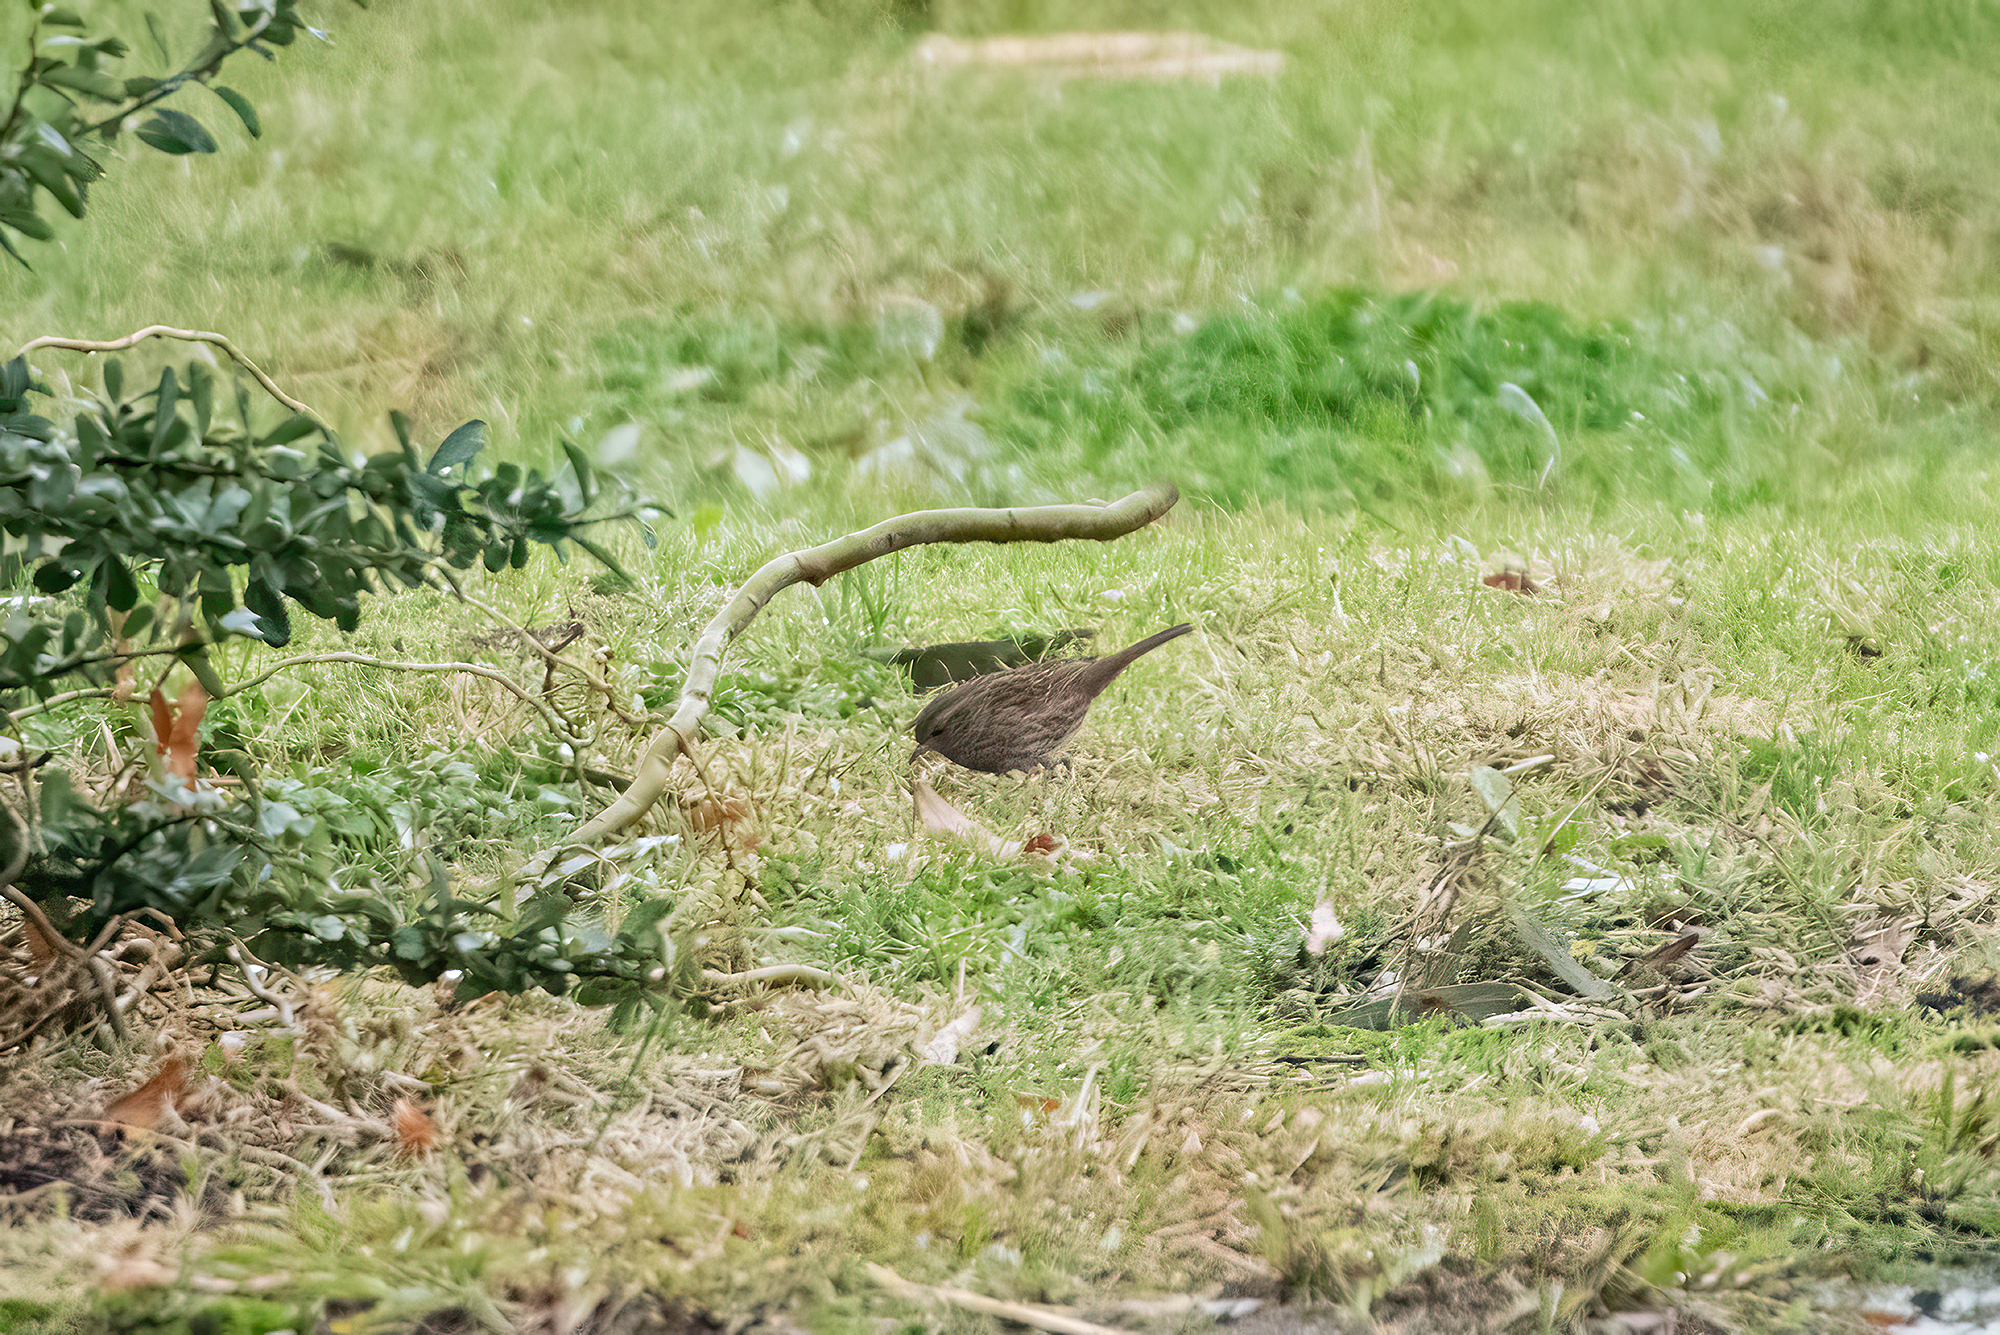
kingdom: Animalia
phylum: Chordata
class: Aves
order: Passeriformes
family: Prunellidae
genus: Prunella
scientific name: Prunella modularis
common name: Dunnock
